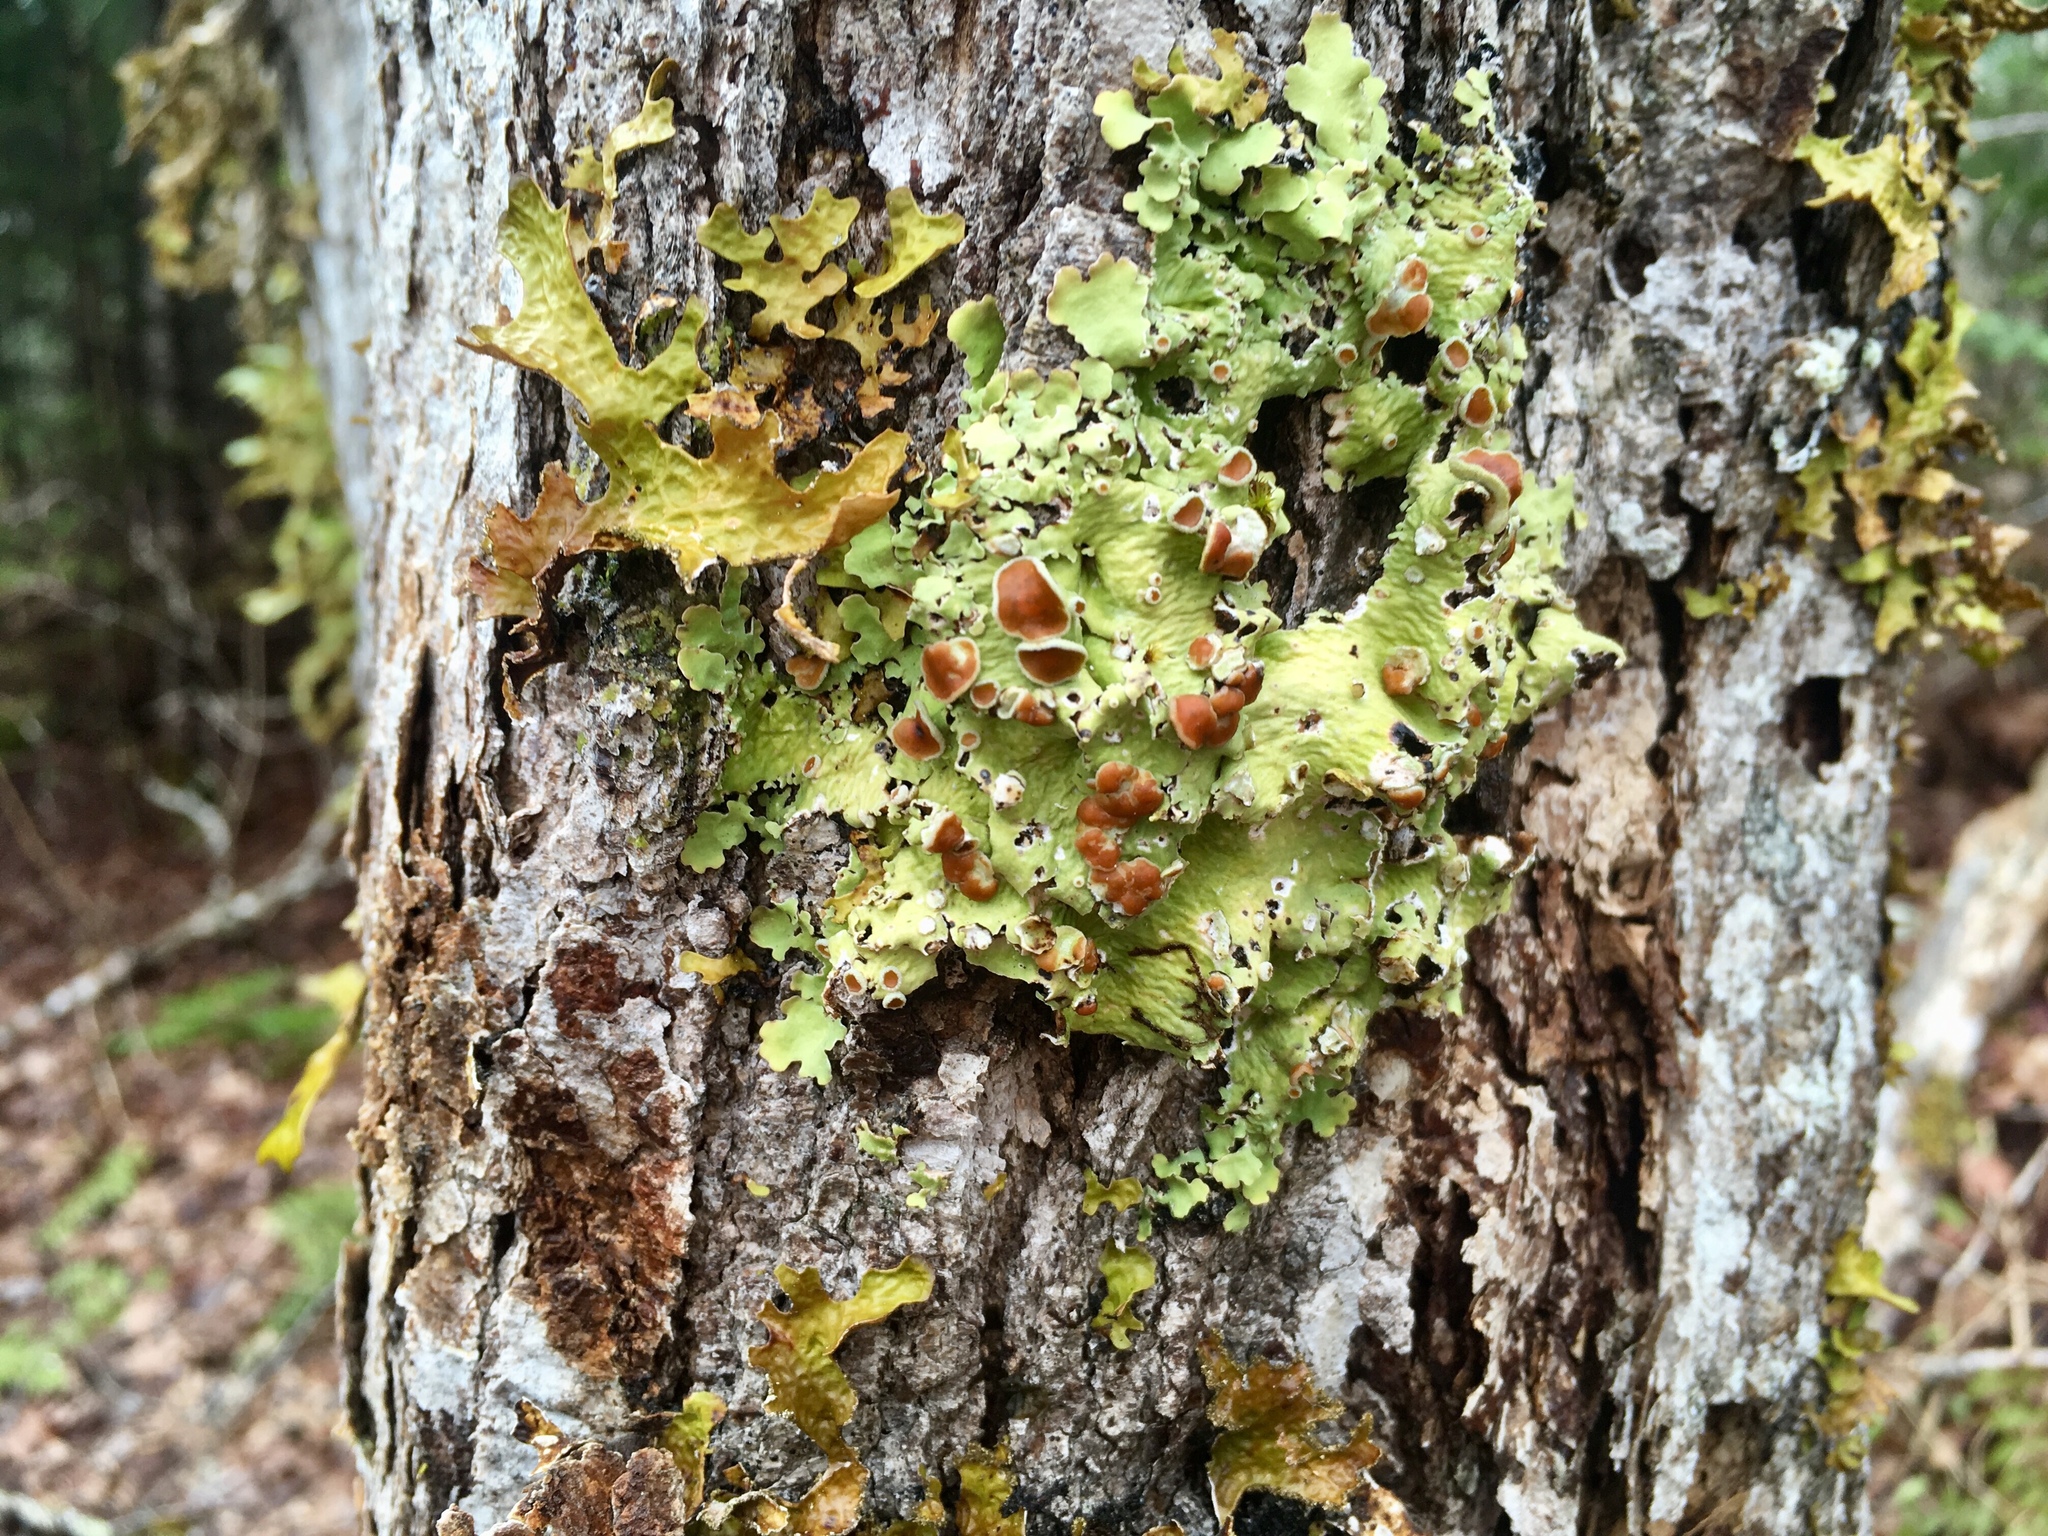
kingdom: Fungi
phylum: Ascomycota
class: Lecanoromycetes
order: Peltigerales
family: Lobariaceae
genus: Ricasolia
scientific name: Ricasolia quercizans
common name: Smooth lungwort
